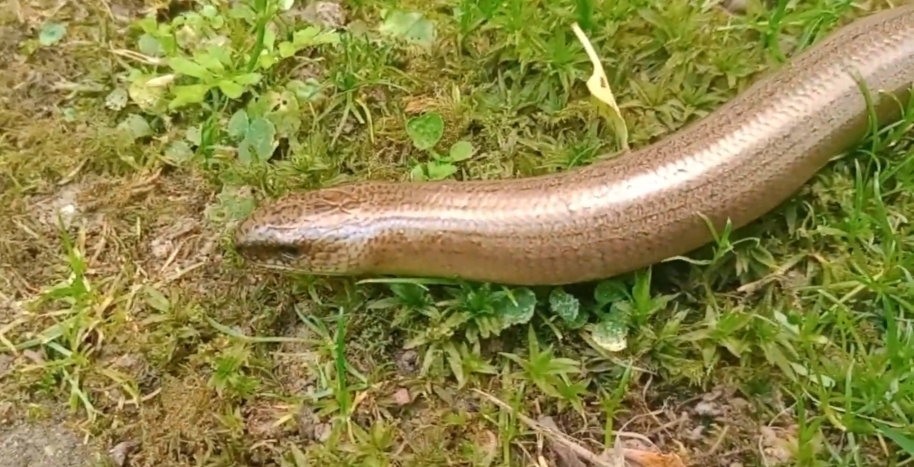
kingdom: Animalia
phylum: Chordata
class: Squamata
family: Anguidae
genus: Anguis
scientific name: Anguis fragilis
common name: Slow worm
